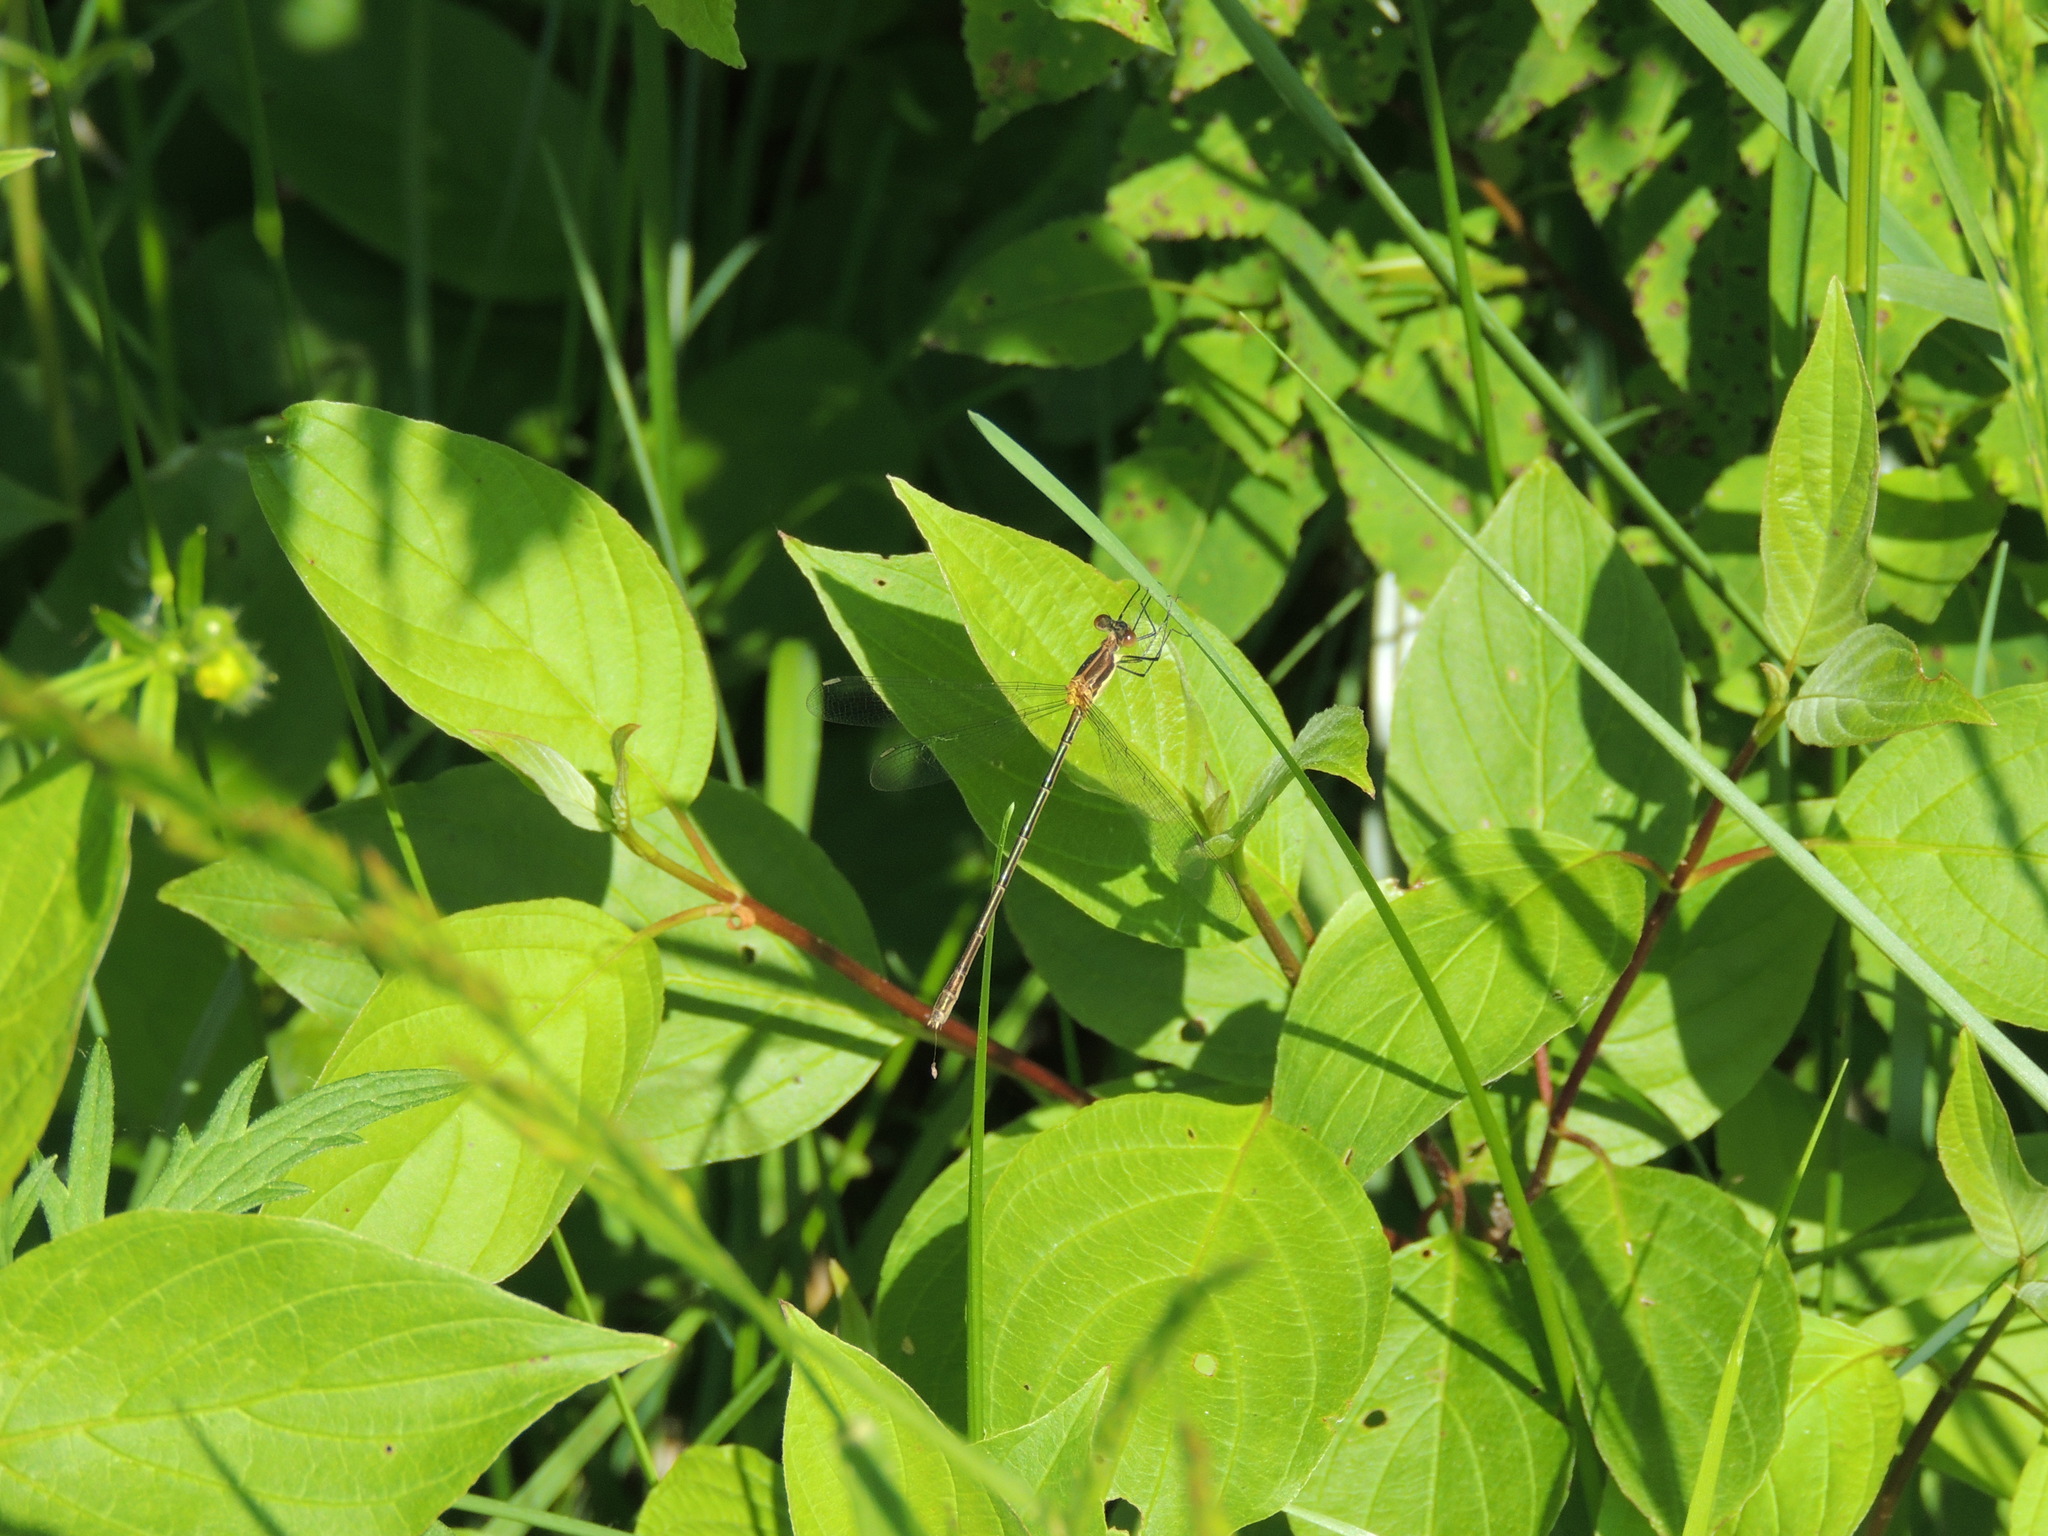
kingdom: Animalia
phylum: Arthropoda
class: Insecta
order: Odonata
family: Lestidae
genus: Lestes
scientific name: Lestes rectangularis
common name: Slender spreadwing
